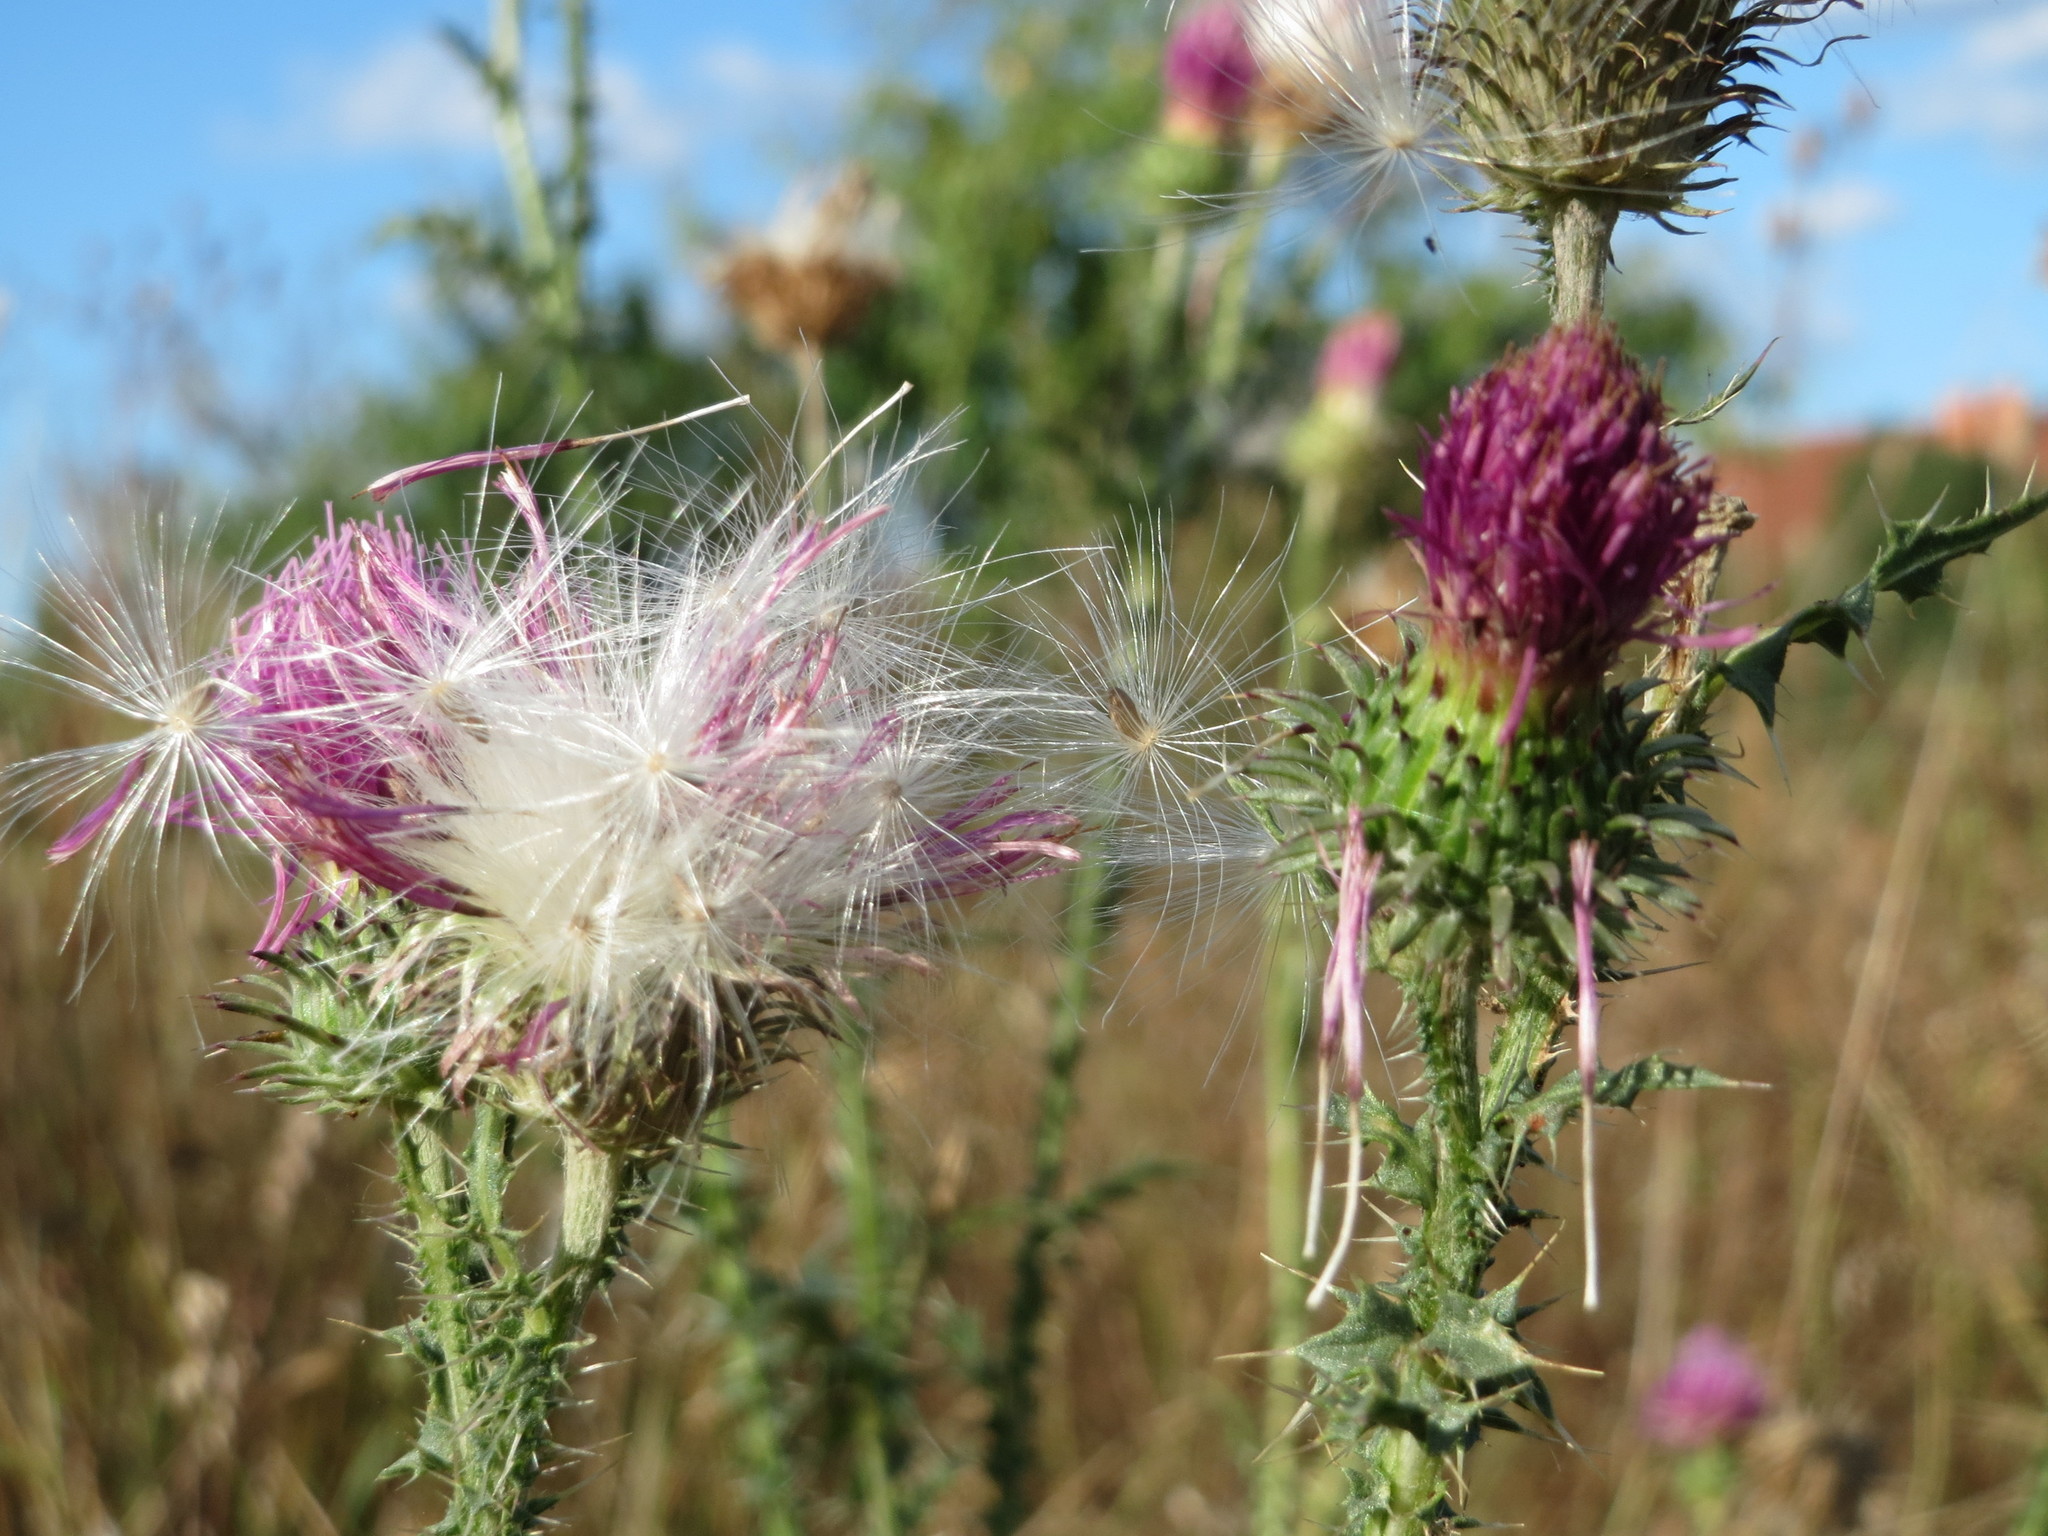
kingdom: Plantae
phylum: Tracheophyta
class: Magnoliopsida
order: Asterales
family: Asteraceae
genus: Carduus
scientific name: Carduus acanthoides
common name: Plumeless thistle
